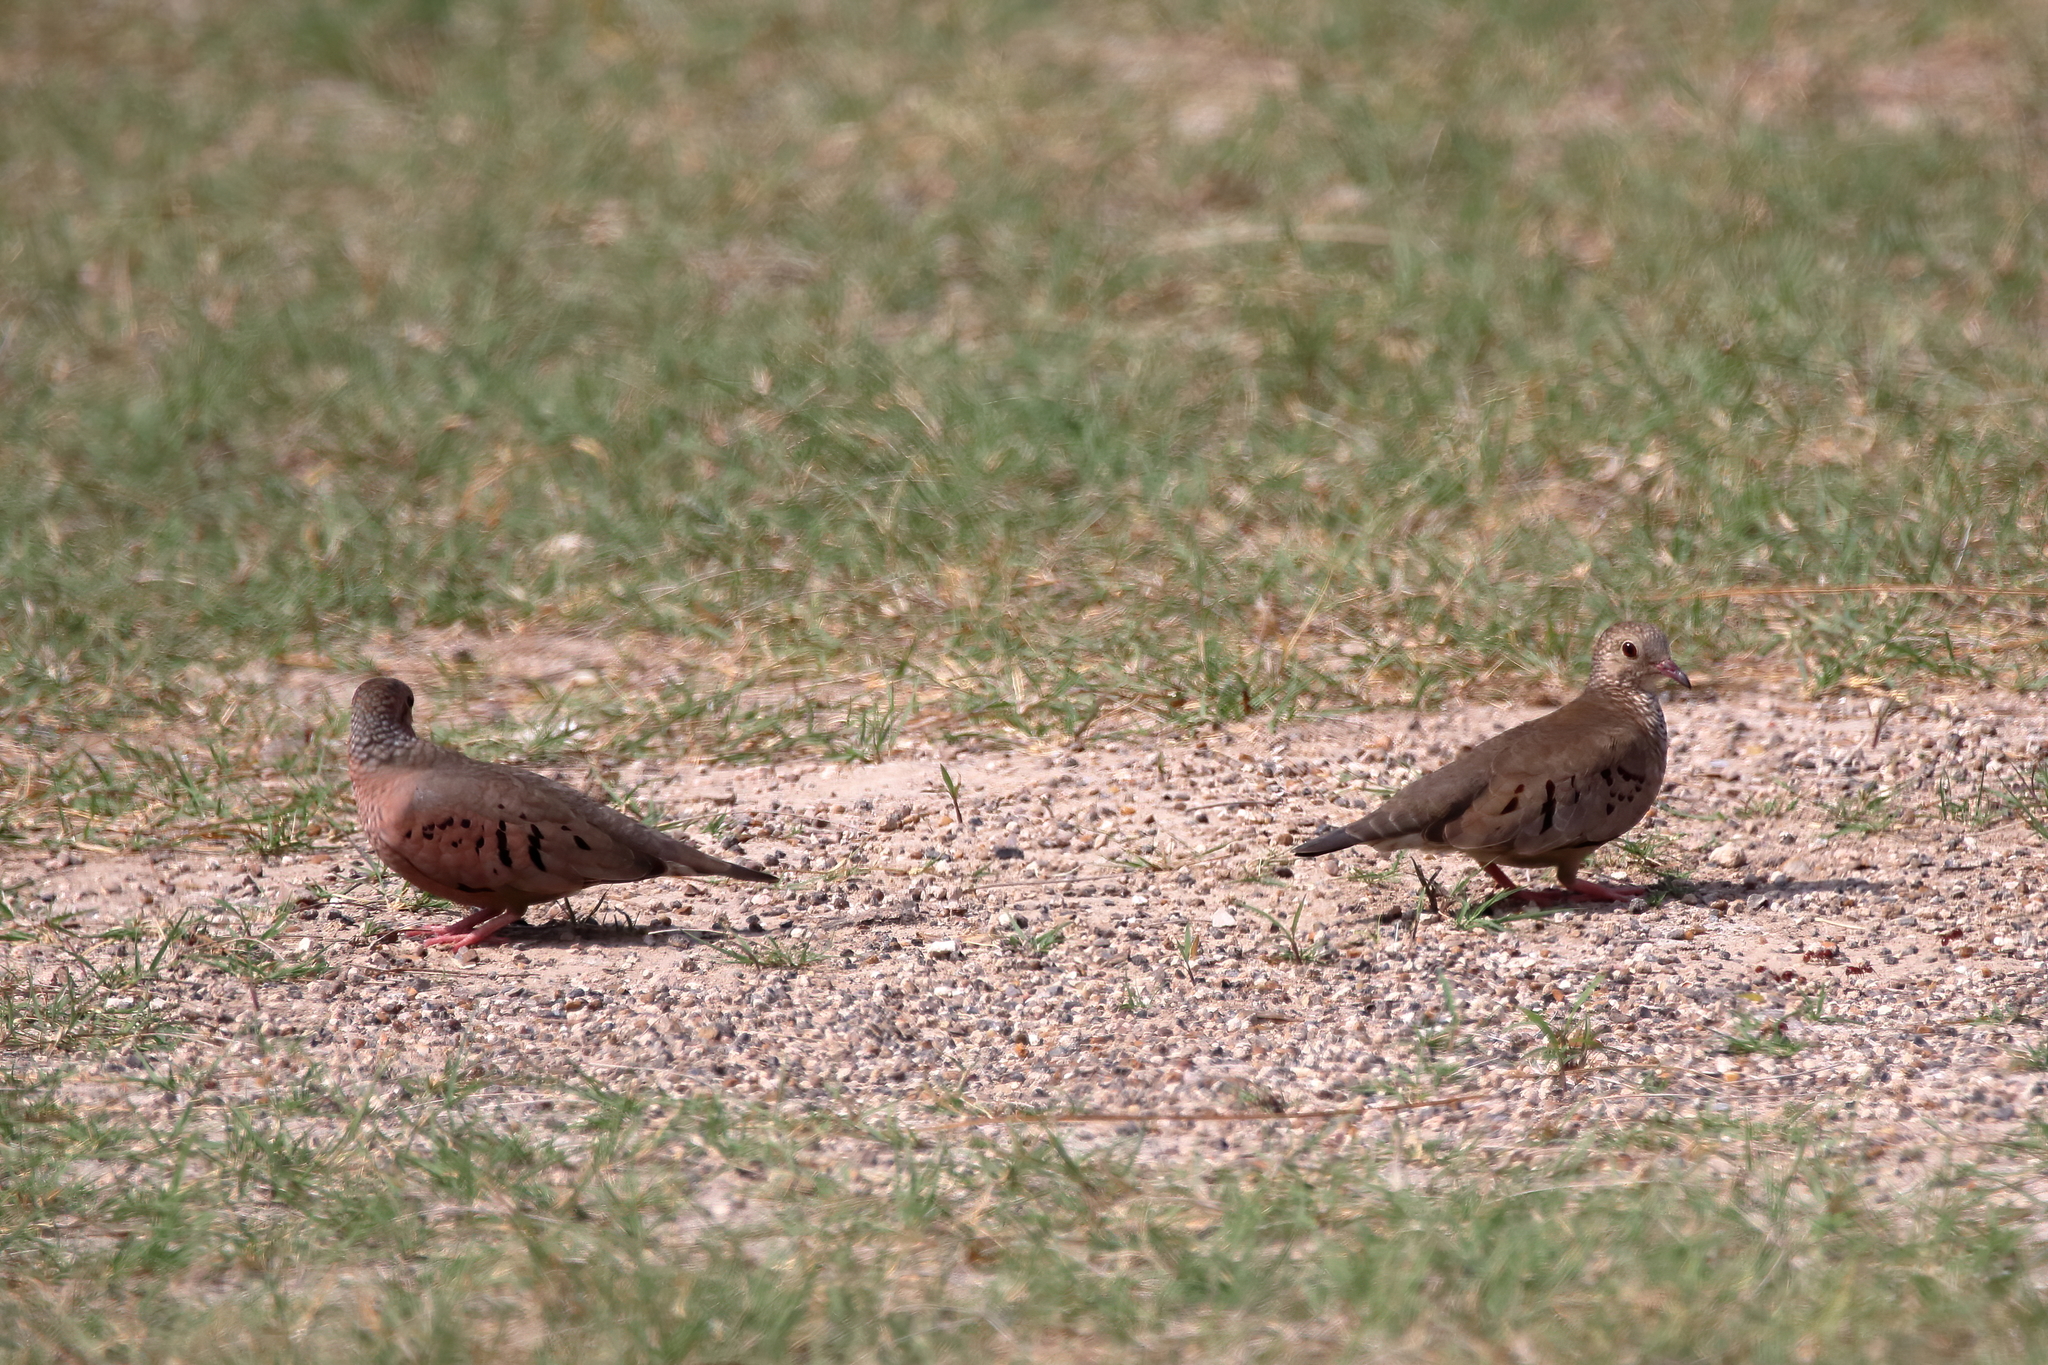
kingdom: Animalia
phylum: Chordata
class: Aves
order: Columbiformes
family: Columbidae
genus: Columbina
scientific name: Columbina passerina
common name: Common ground-dove
